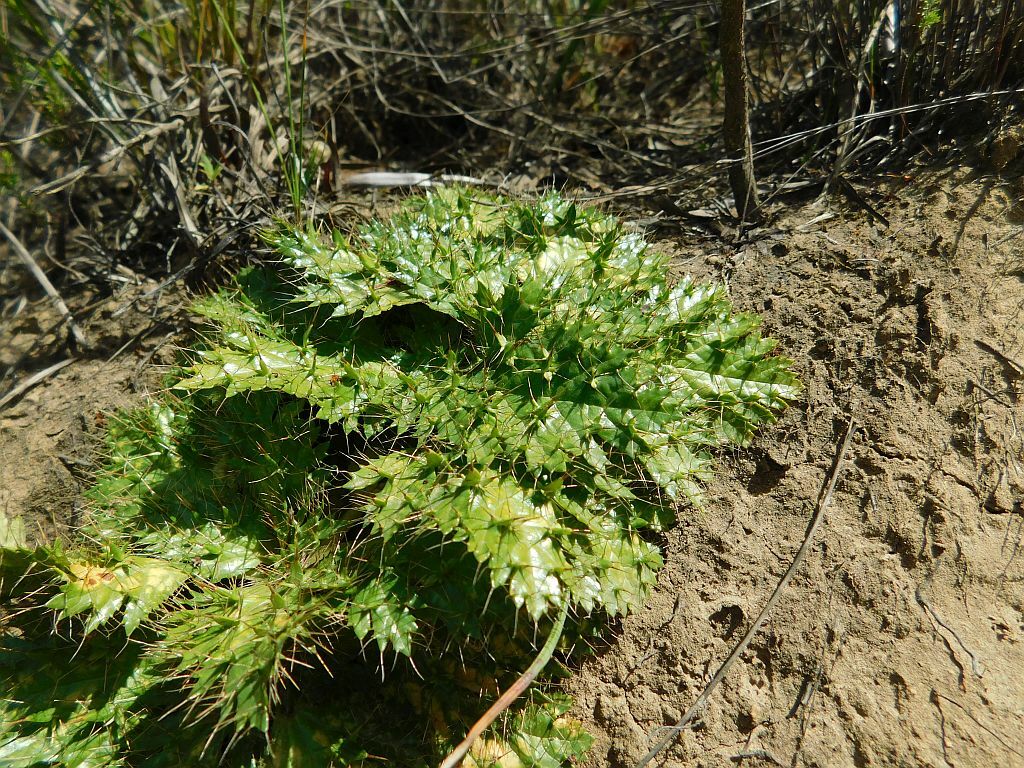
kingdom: Plantae
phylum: Tracheophyta
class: Magnoliopsida
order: Apiales
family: Apiaceae
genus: Arctopus
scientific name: Arctopus echinatus
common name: Platdoring
